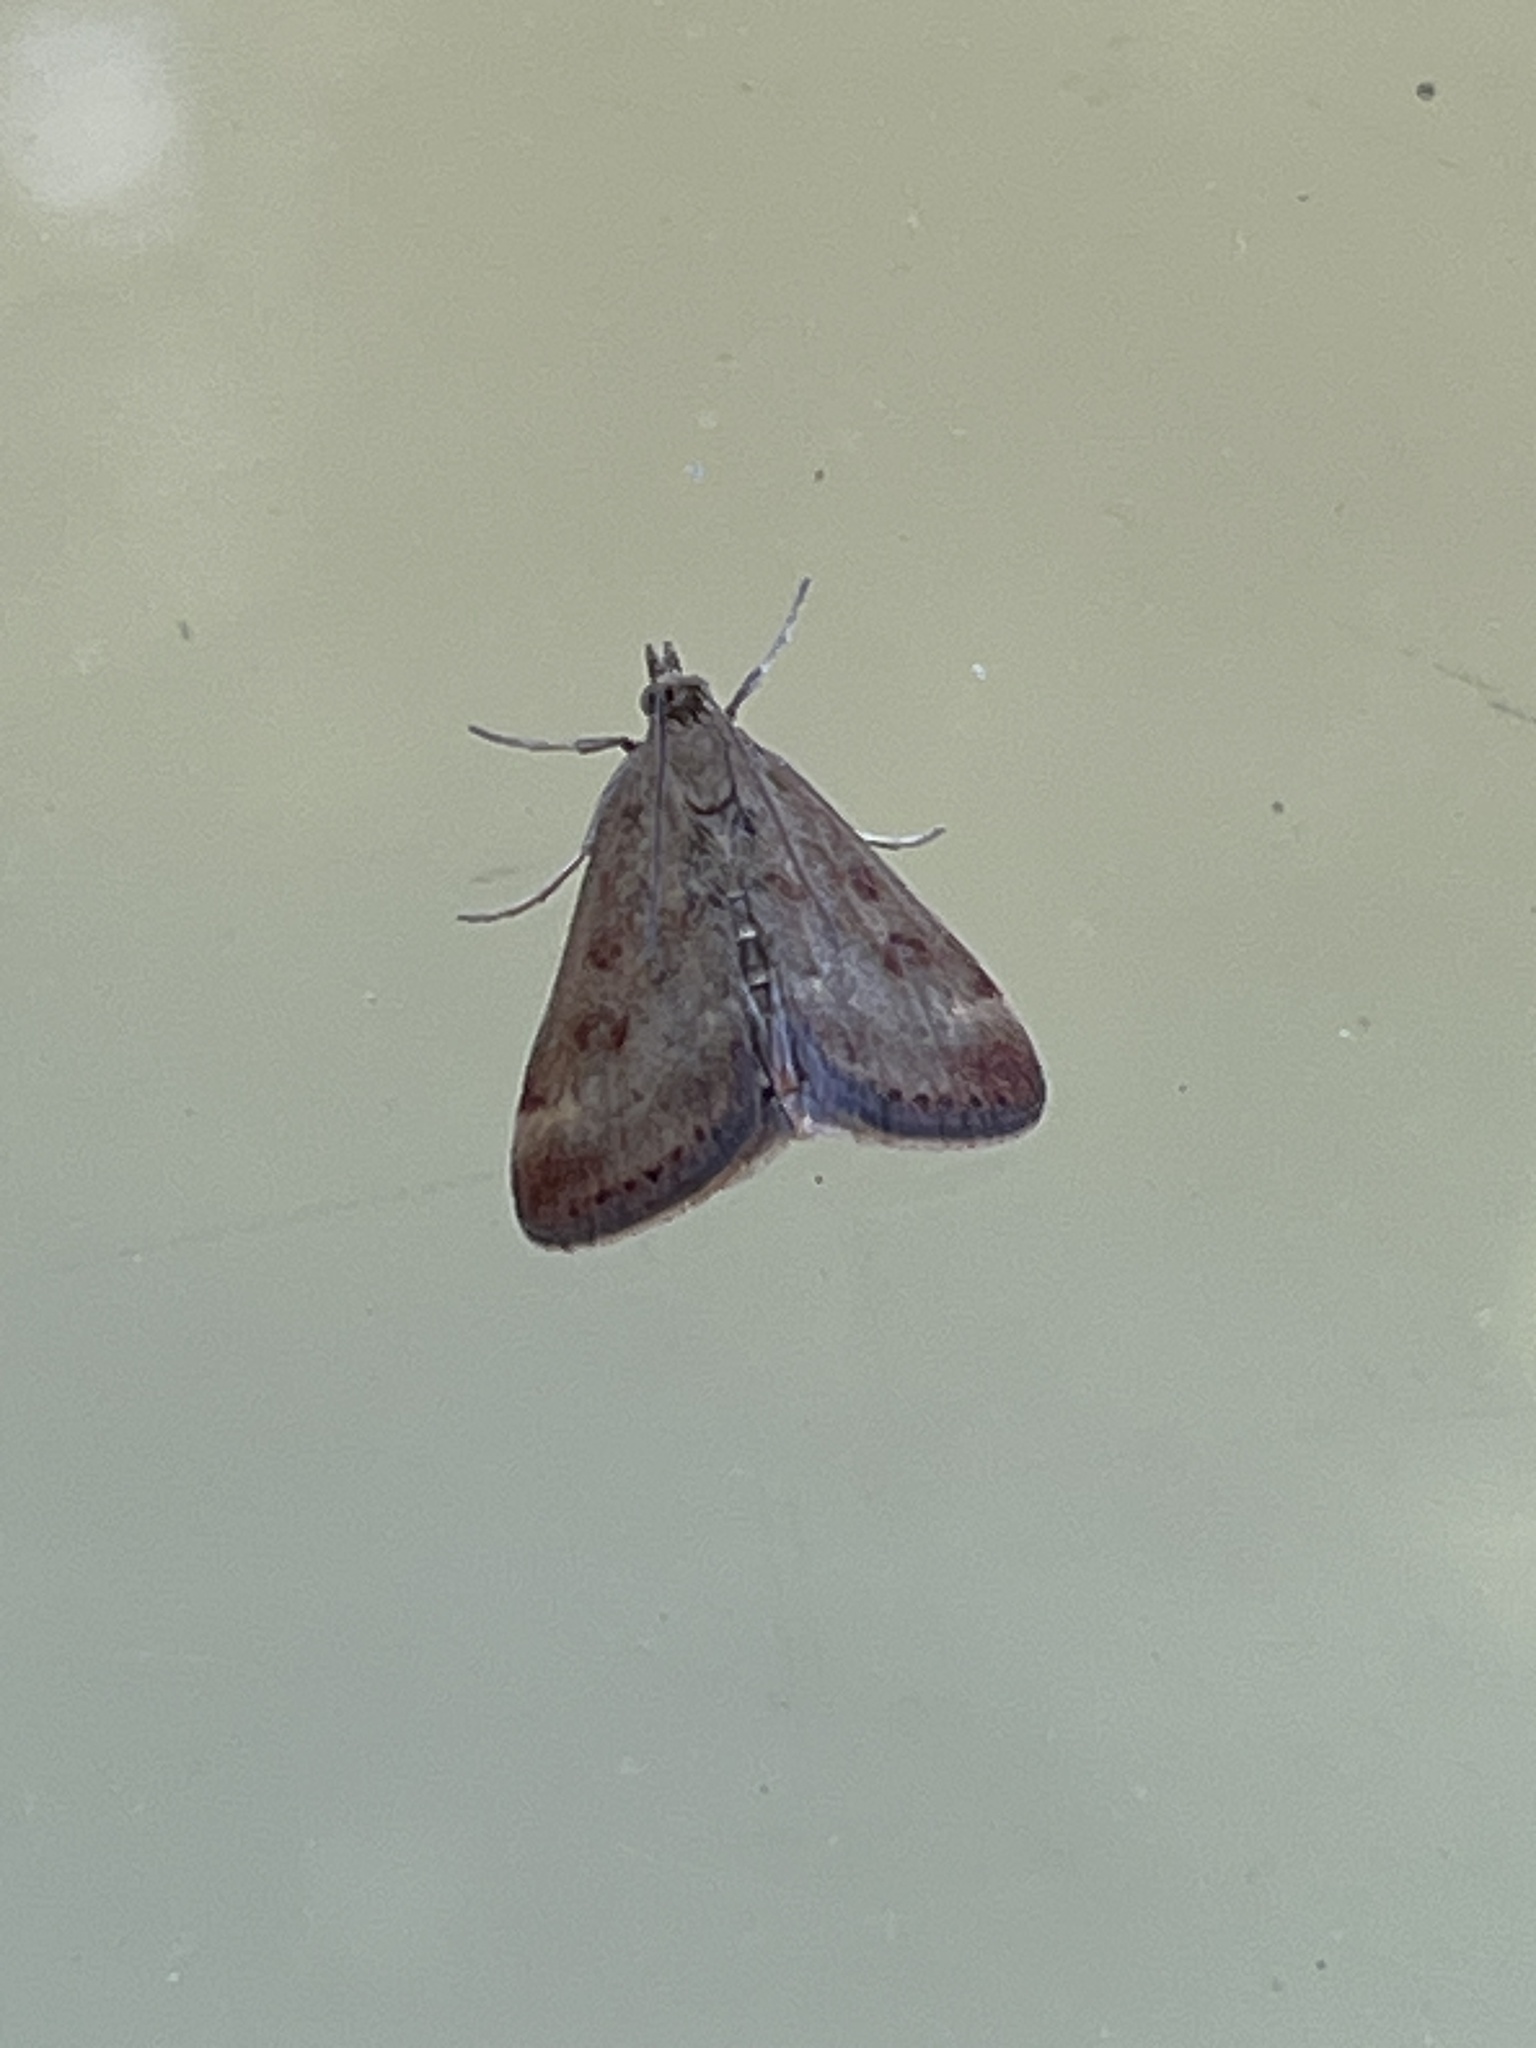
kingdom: Animalia
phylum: Arthropoda
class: Insecta
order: Lepidoptera
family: Crambidae
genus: Pyrausta
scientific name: Pyrausta despicata
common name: Straw-barred pearl
